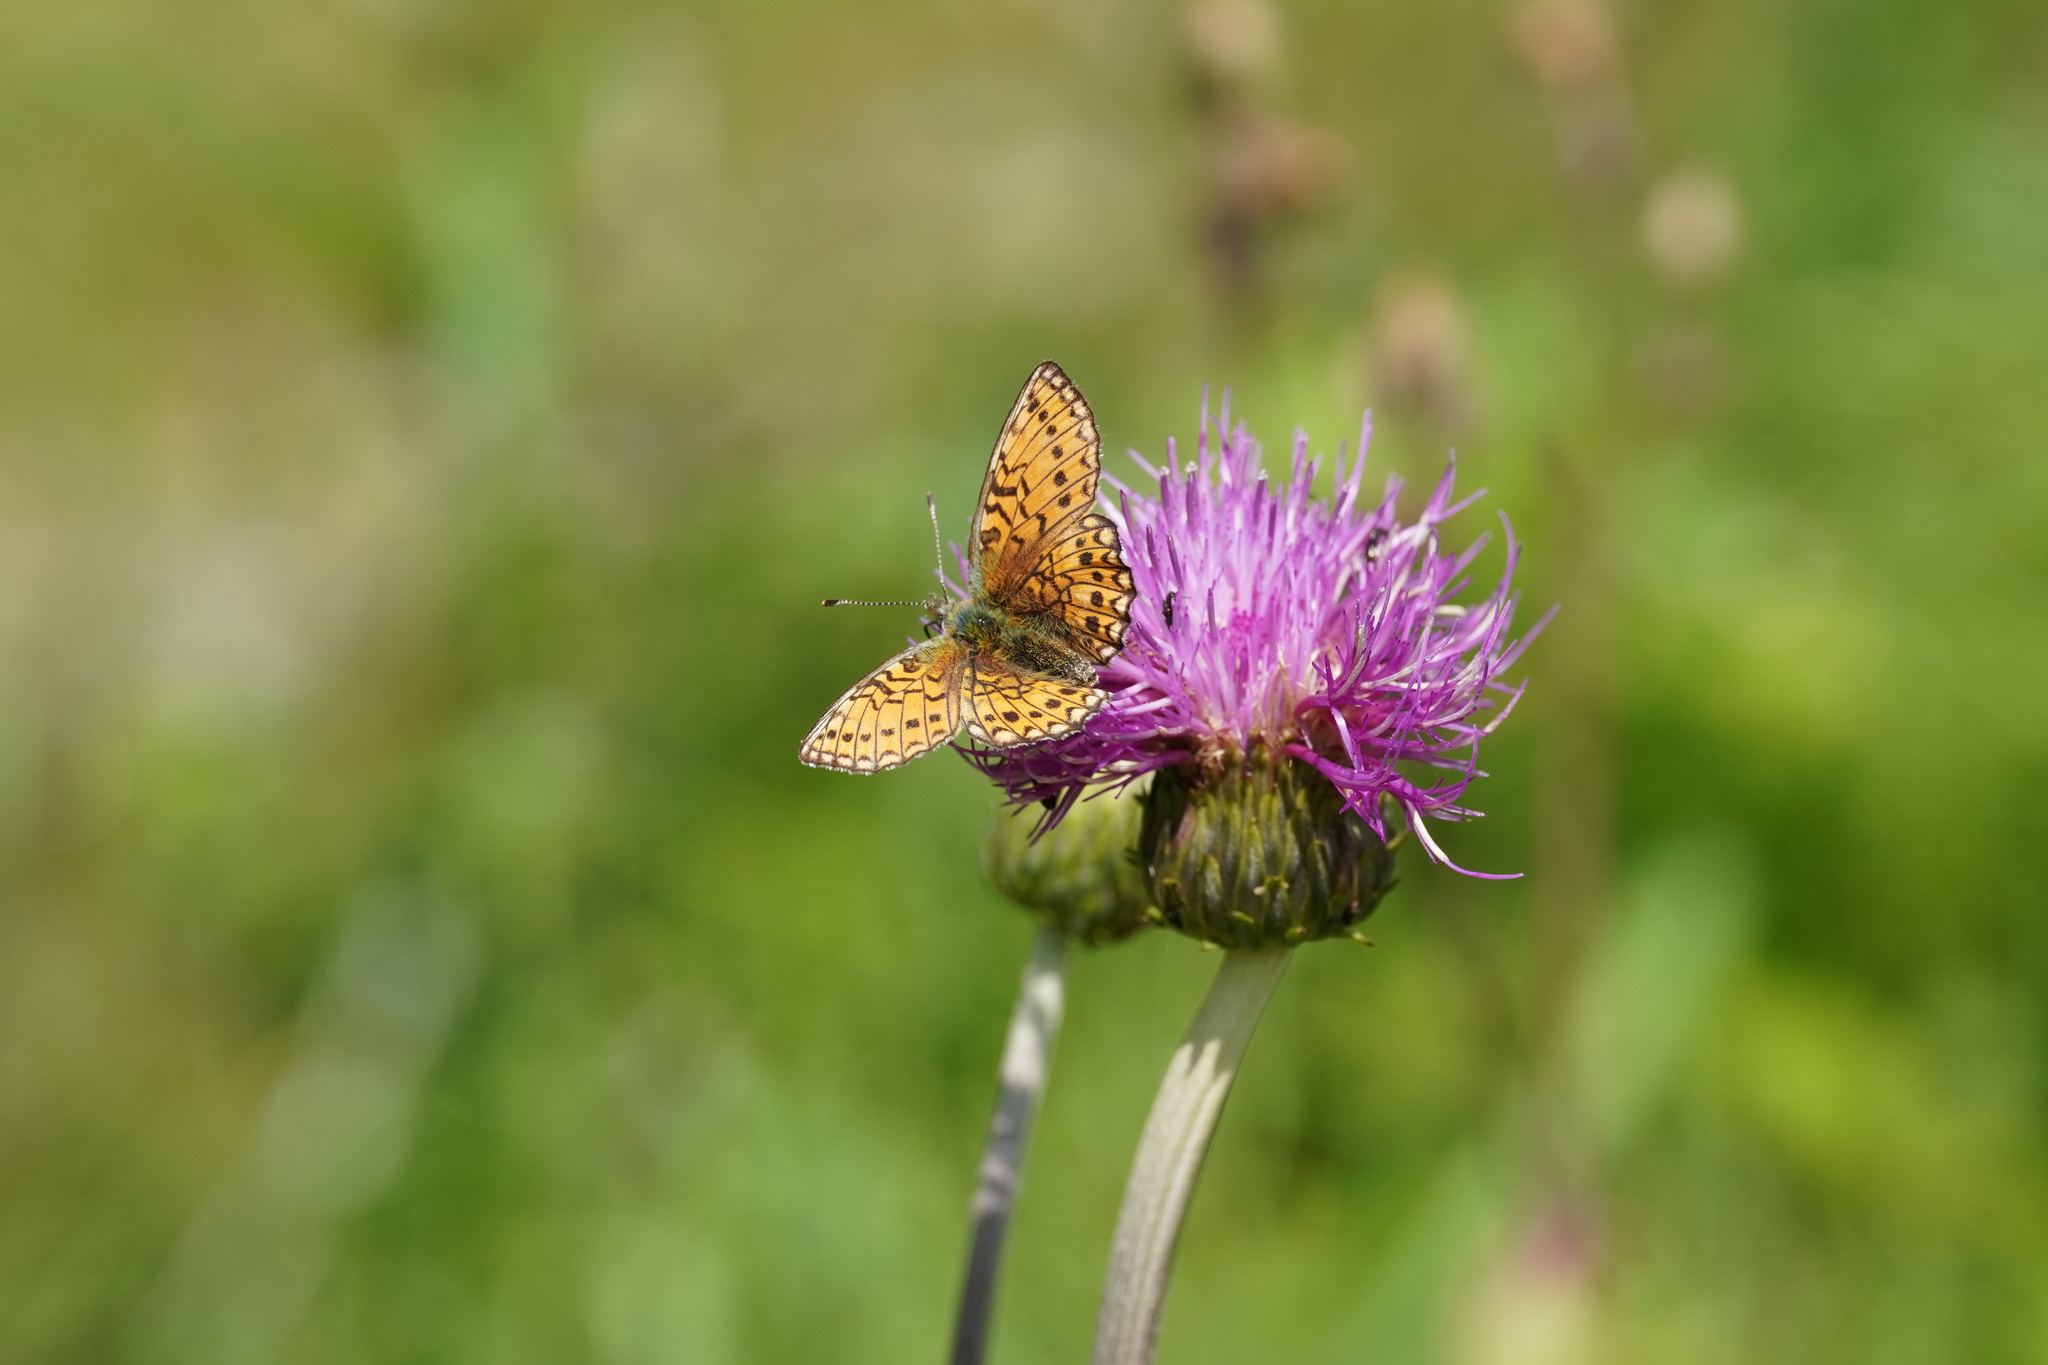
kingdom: Animalia
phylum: Arthropoda
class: Insecta
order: Lepidoptera
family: Nymphalidae
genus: Boloria
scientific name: Boloria eunomia
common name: Bog fritillary
